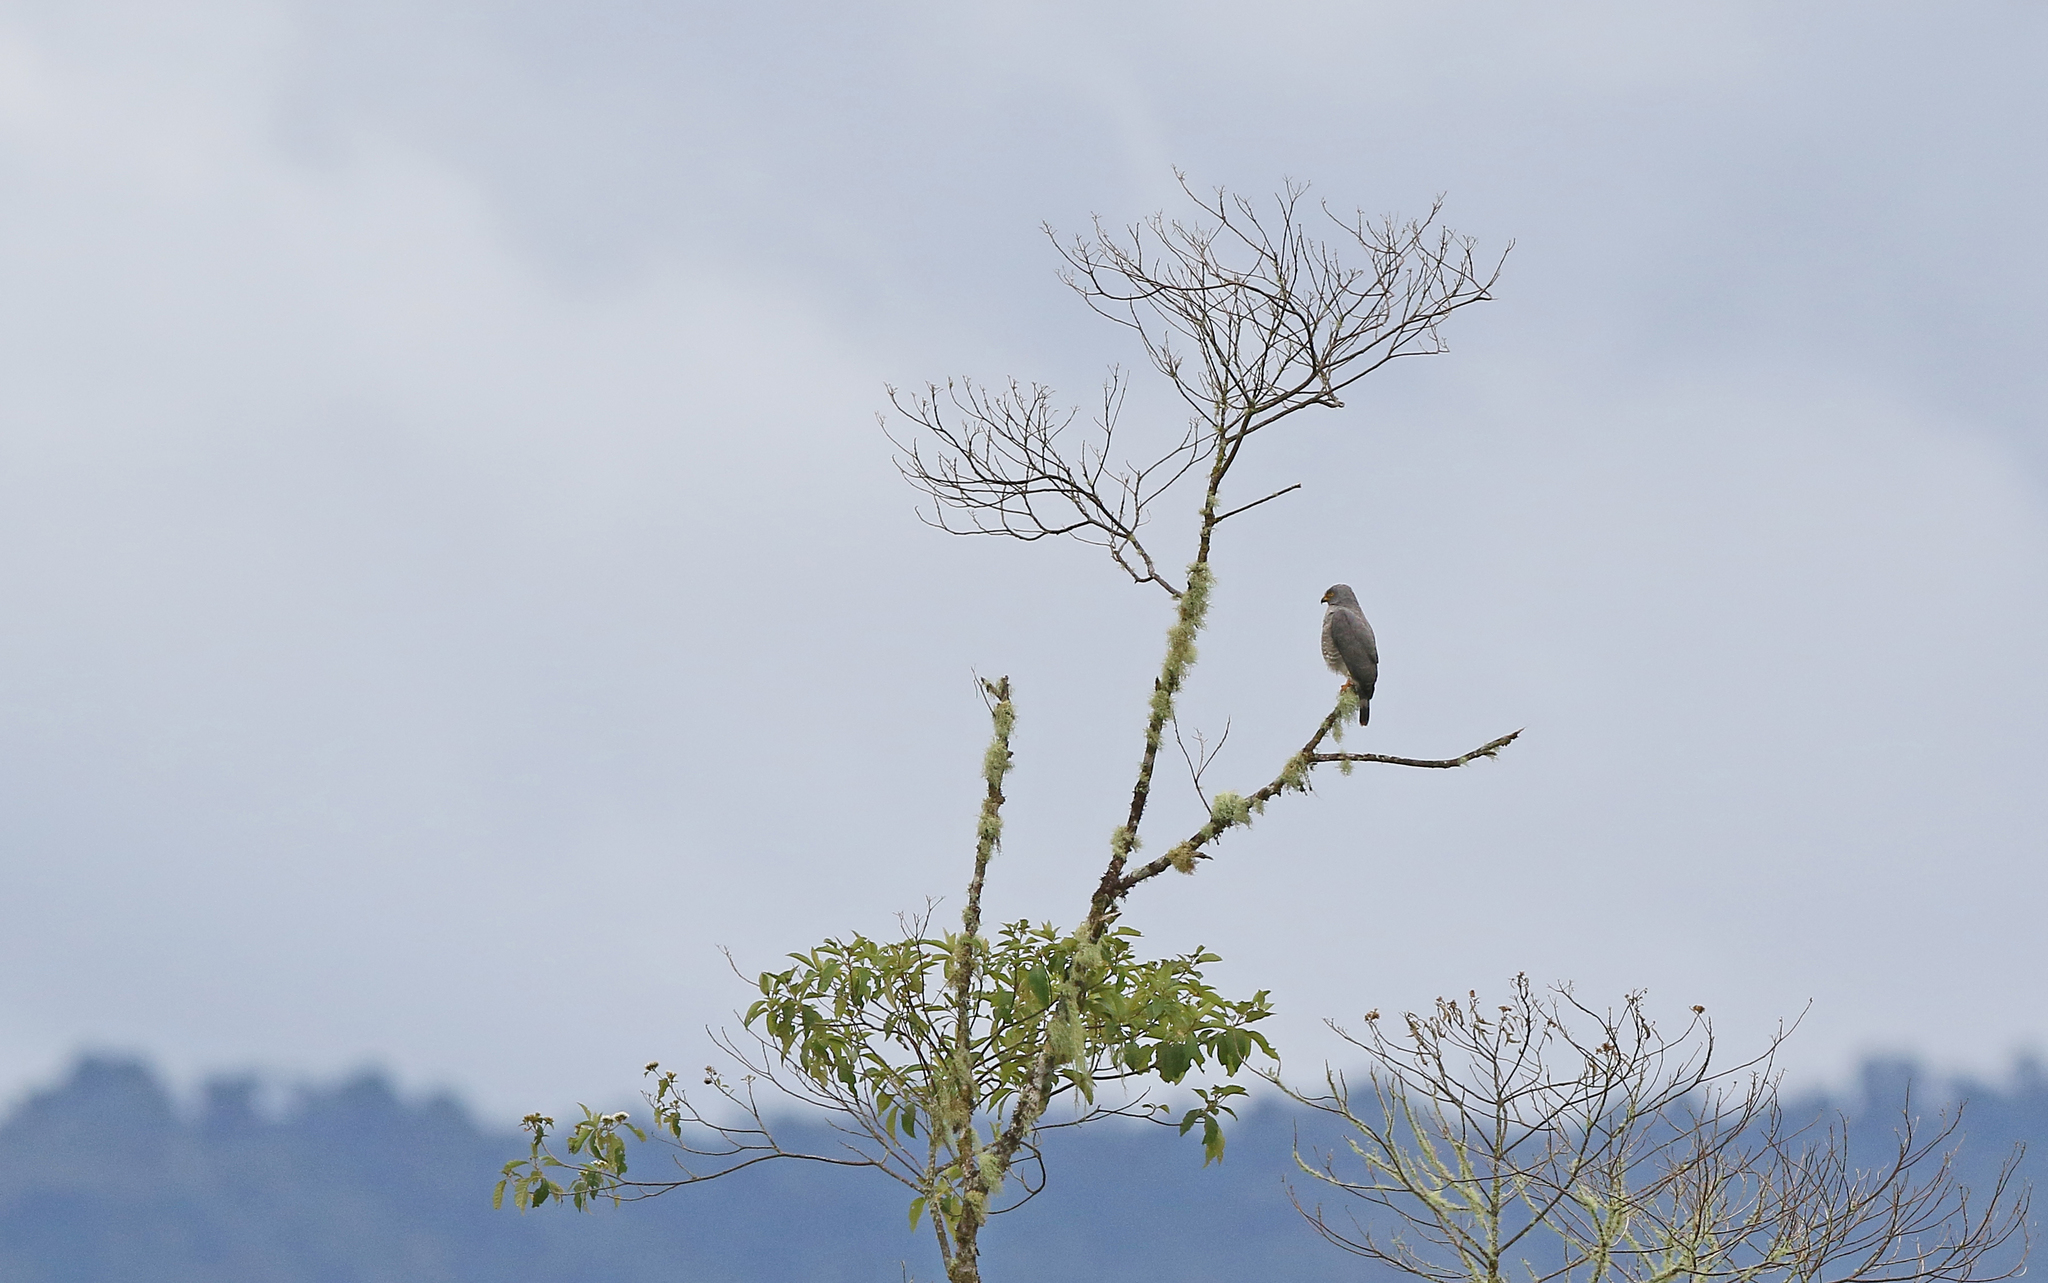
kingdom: Animalia
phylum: Chordata
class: Aves
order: Accipitriformes
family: Accipitridae
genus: Rupornis
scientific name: Rupornis magnirostris
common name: Roadside hawk
